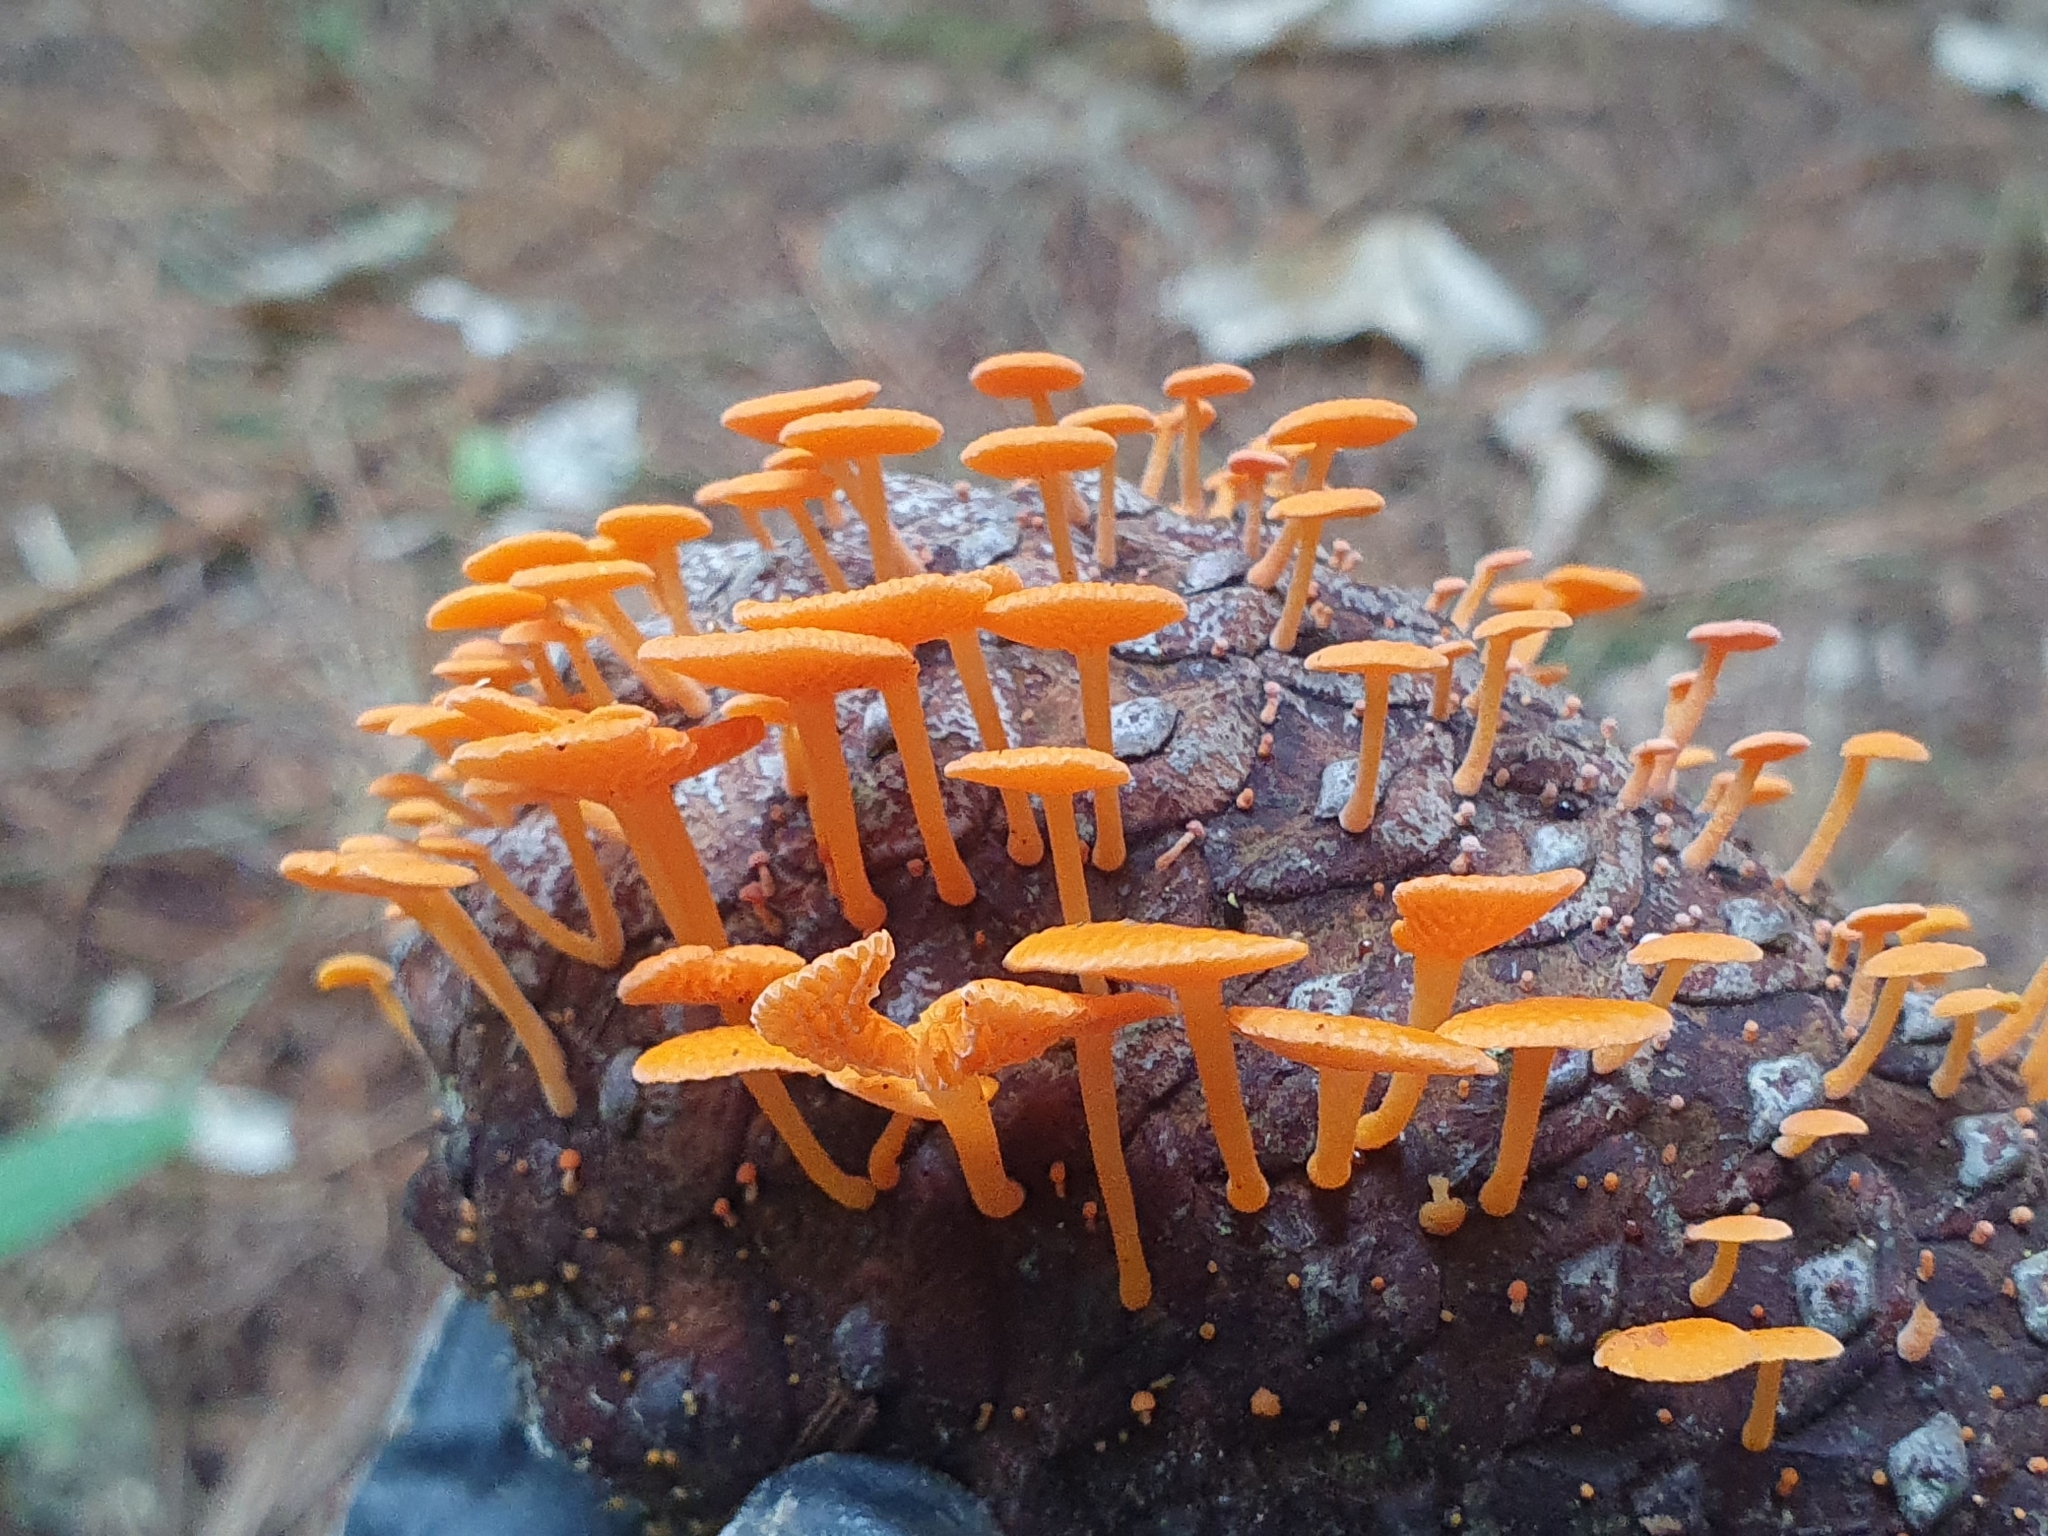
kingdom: Fungi
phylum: Basidiomycota
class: Agaricomycetes
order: Agaricales
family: Mycenaceae
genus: Favolaschia
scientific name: Favolaschia claudopus
